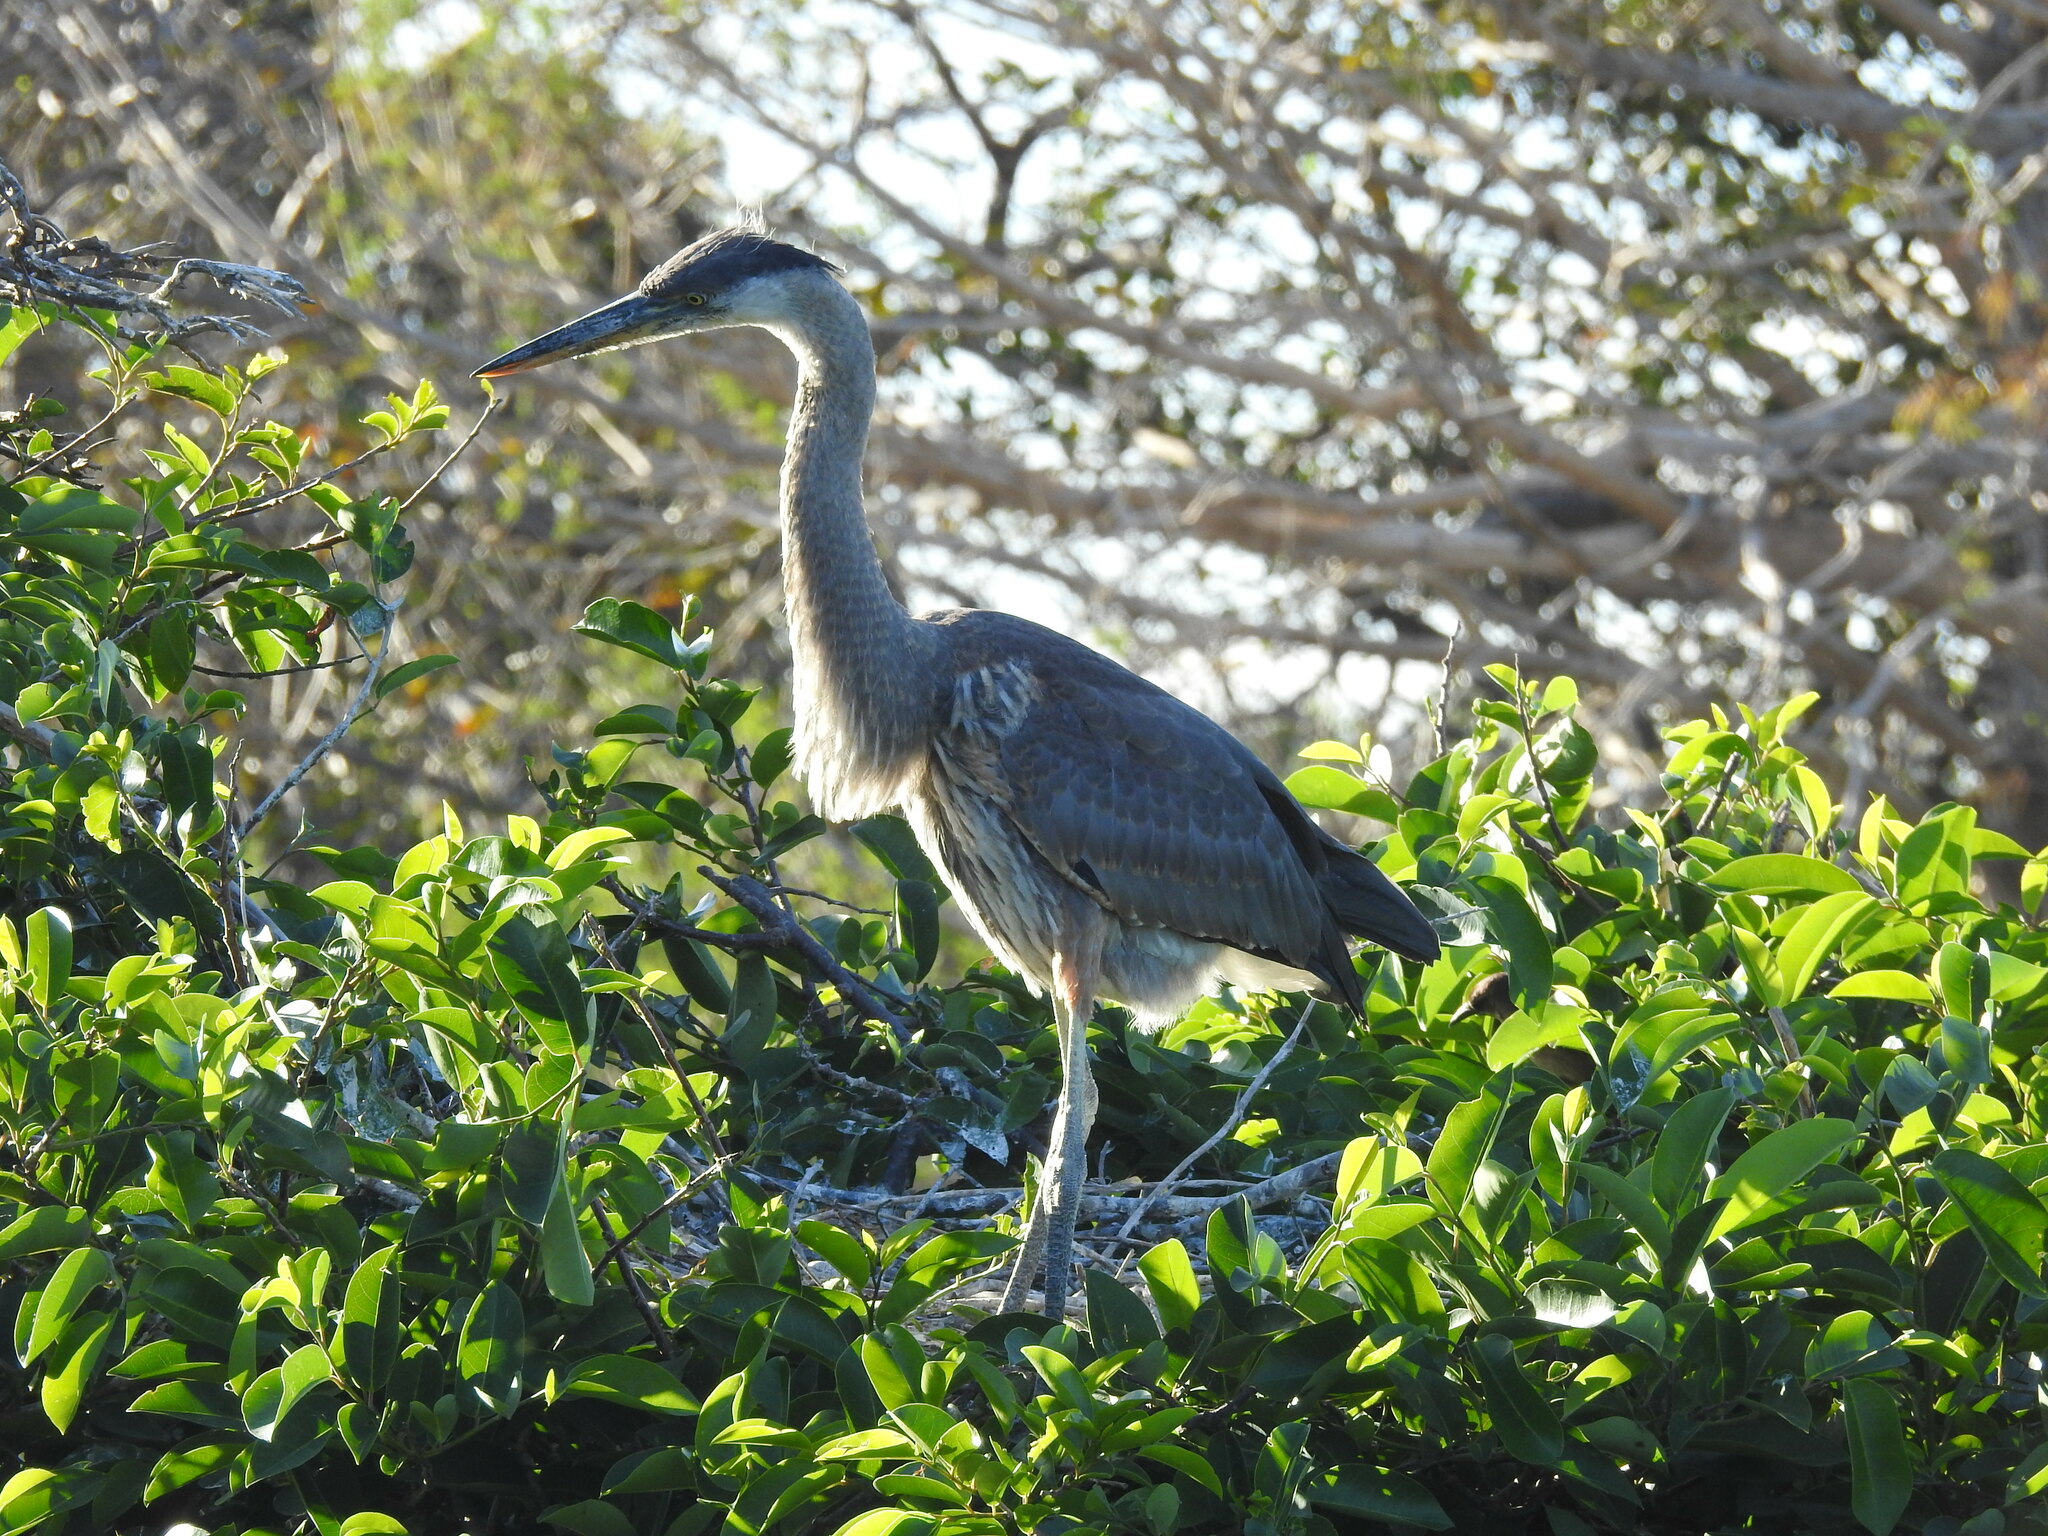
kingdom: Animalia
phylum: Chordata
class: Aves
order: Pelecaniformes
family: Ardeidae
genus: Ardea
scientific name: Ardea herodias
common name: Great blue heron
